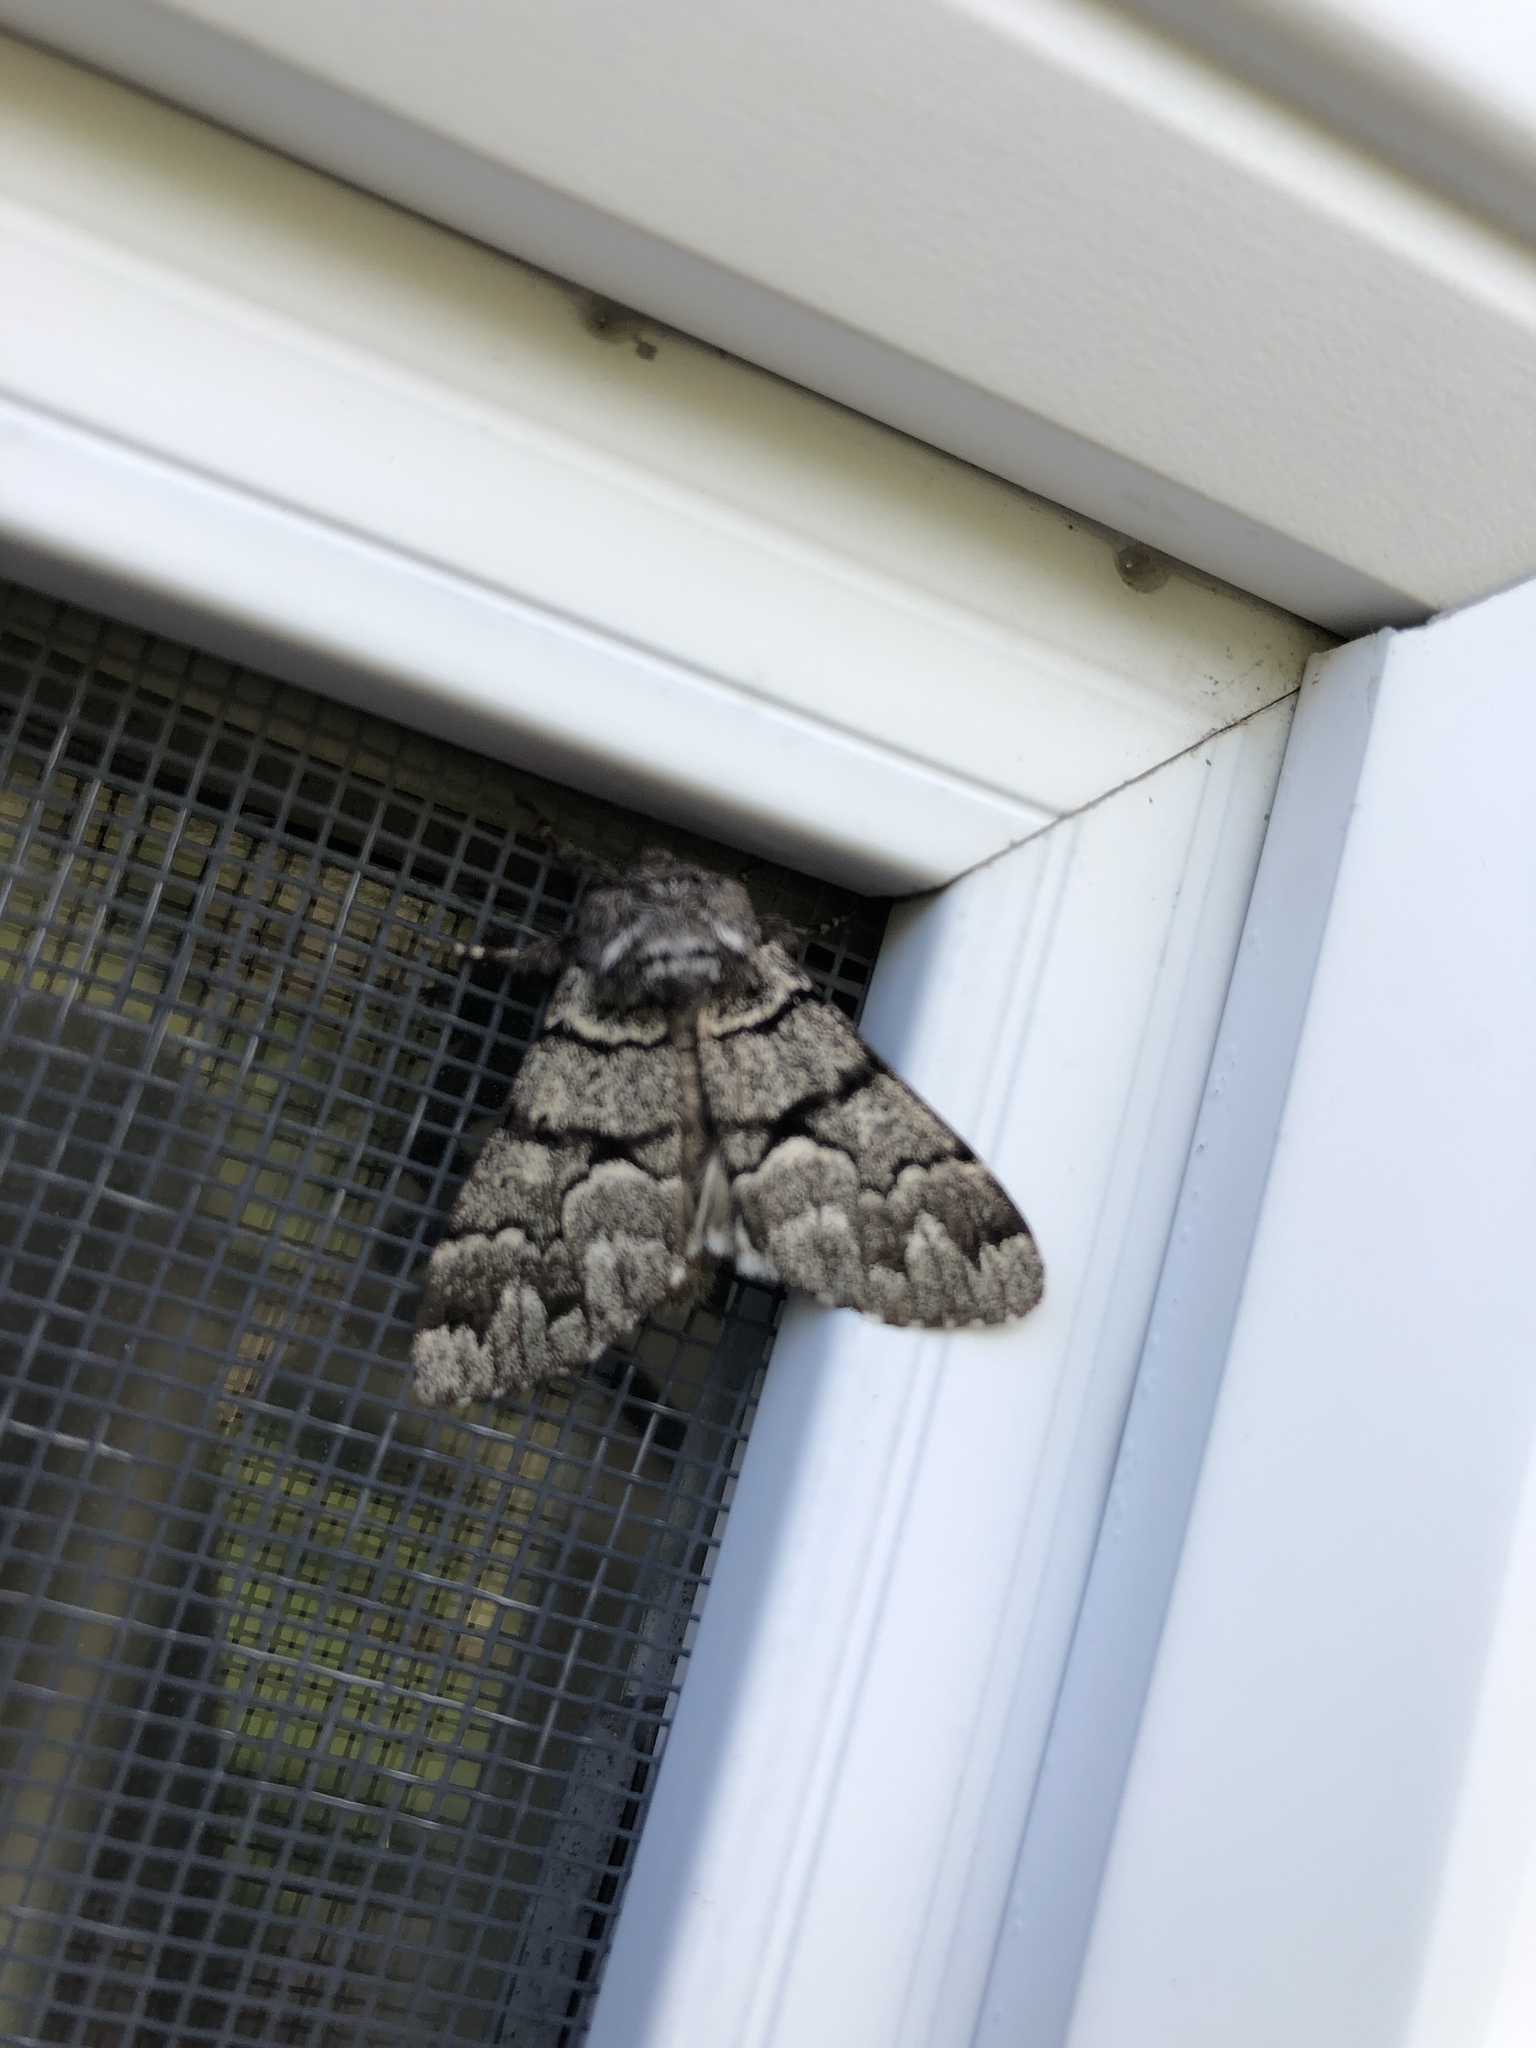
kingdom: Animalia
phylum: Arthropoda
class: Insecta
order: Lepidoptera
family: Noctuidae
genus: Panthea
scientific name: Panthea furcilla
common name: Eastern panthea moth
